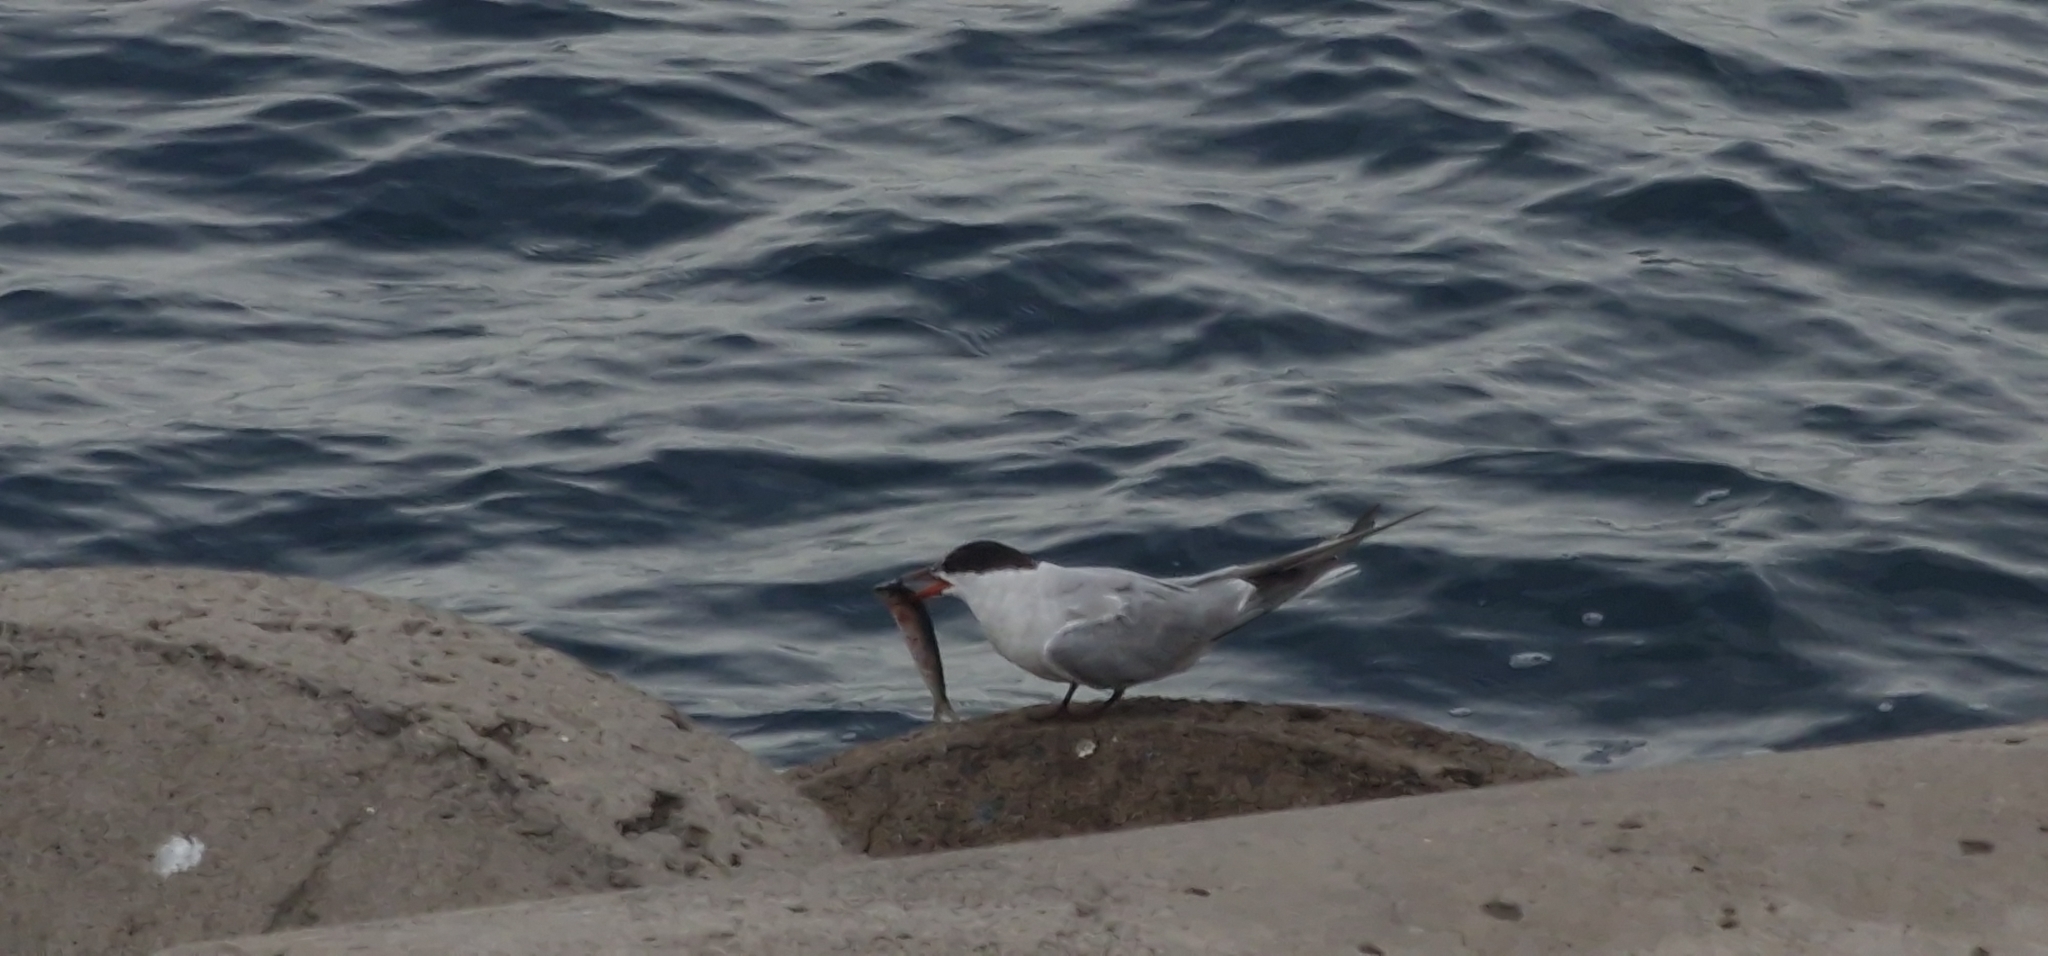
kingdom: Animalia
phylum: Chordata
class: Aves
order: Charadriiformes
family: Laridae
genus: Sterna
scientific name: Sterna hirundo
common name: Common tern
